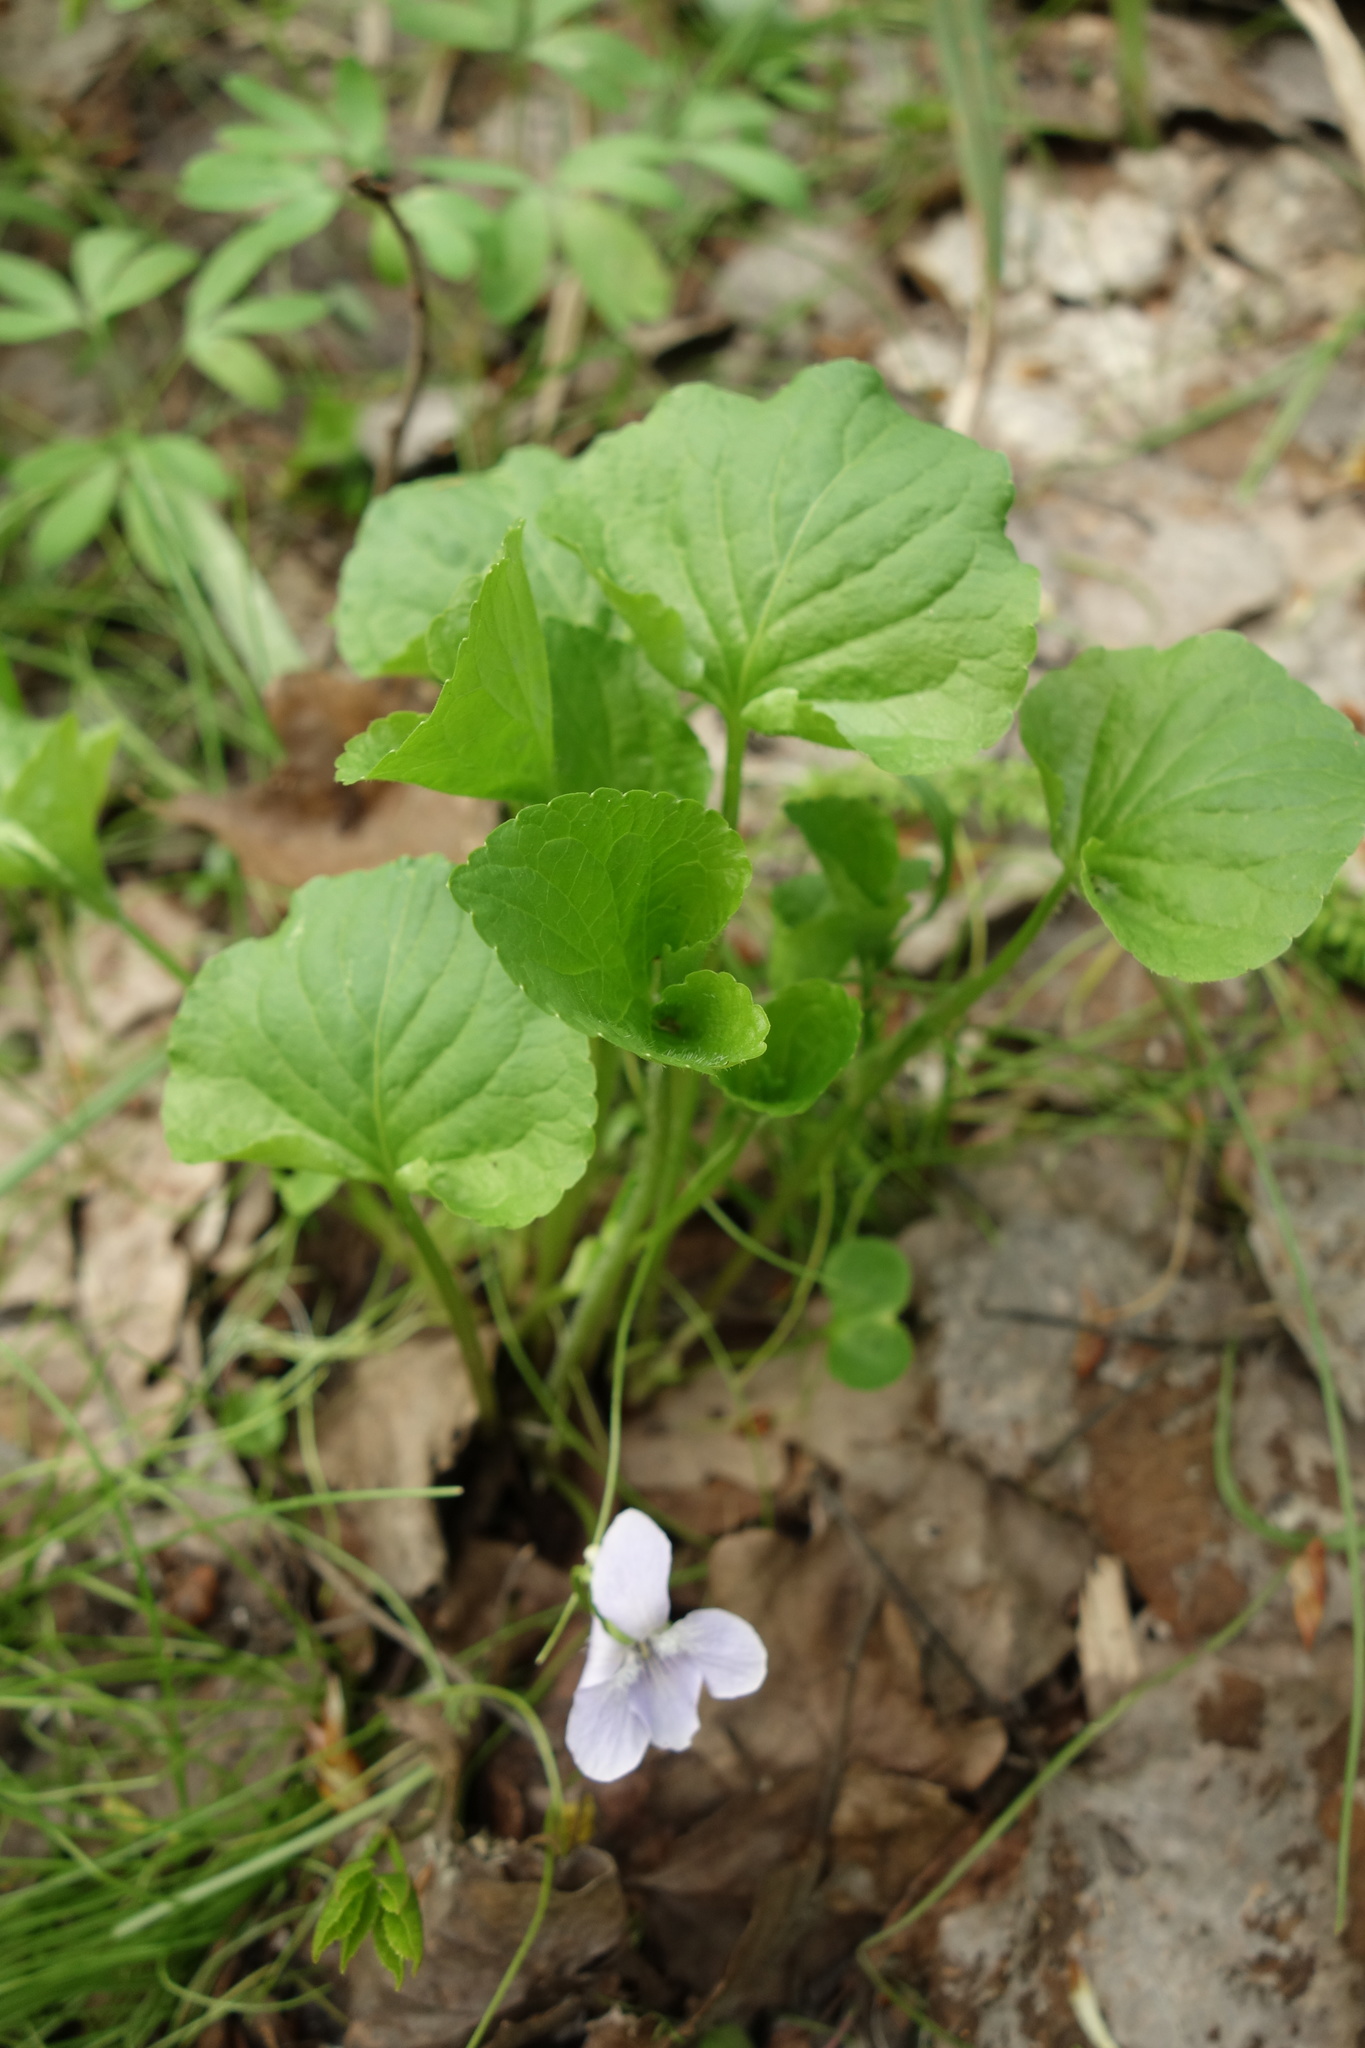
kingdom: Plantae
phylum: Tracheophyta
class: Magnoliopsida
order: Malpighiales
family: Violaceae
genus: Viola
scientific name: Viola mirabilis
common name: Wonder violet
